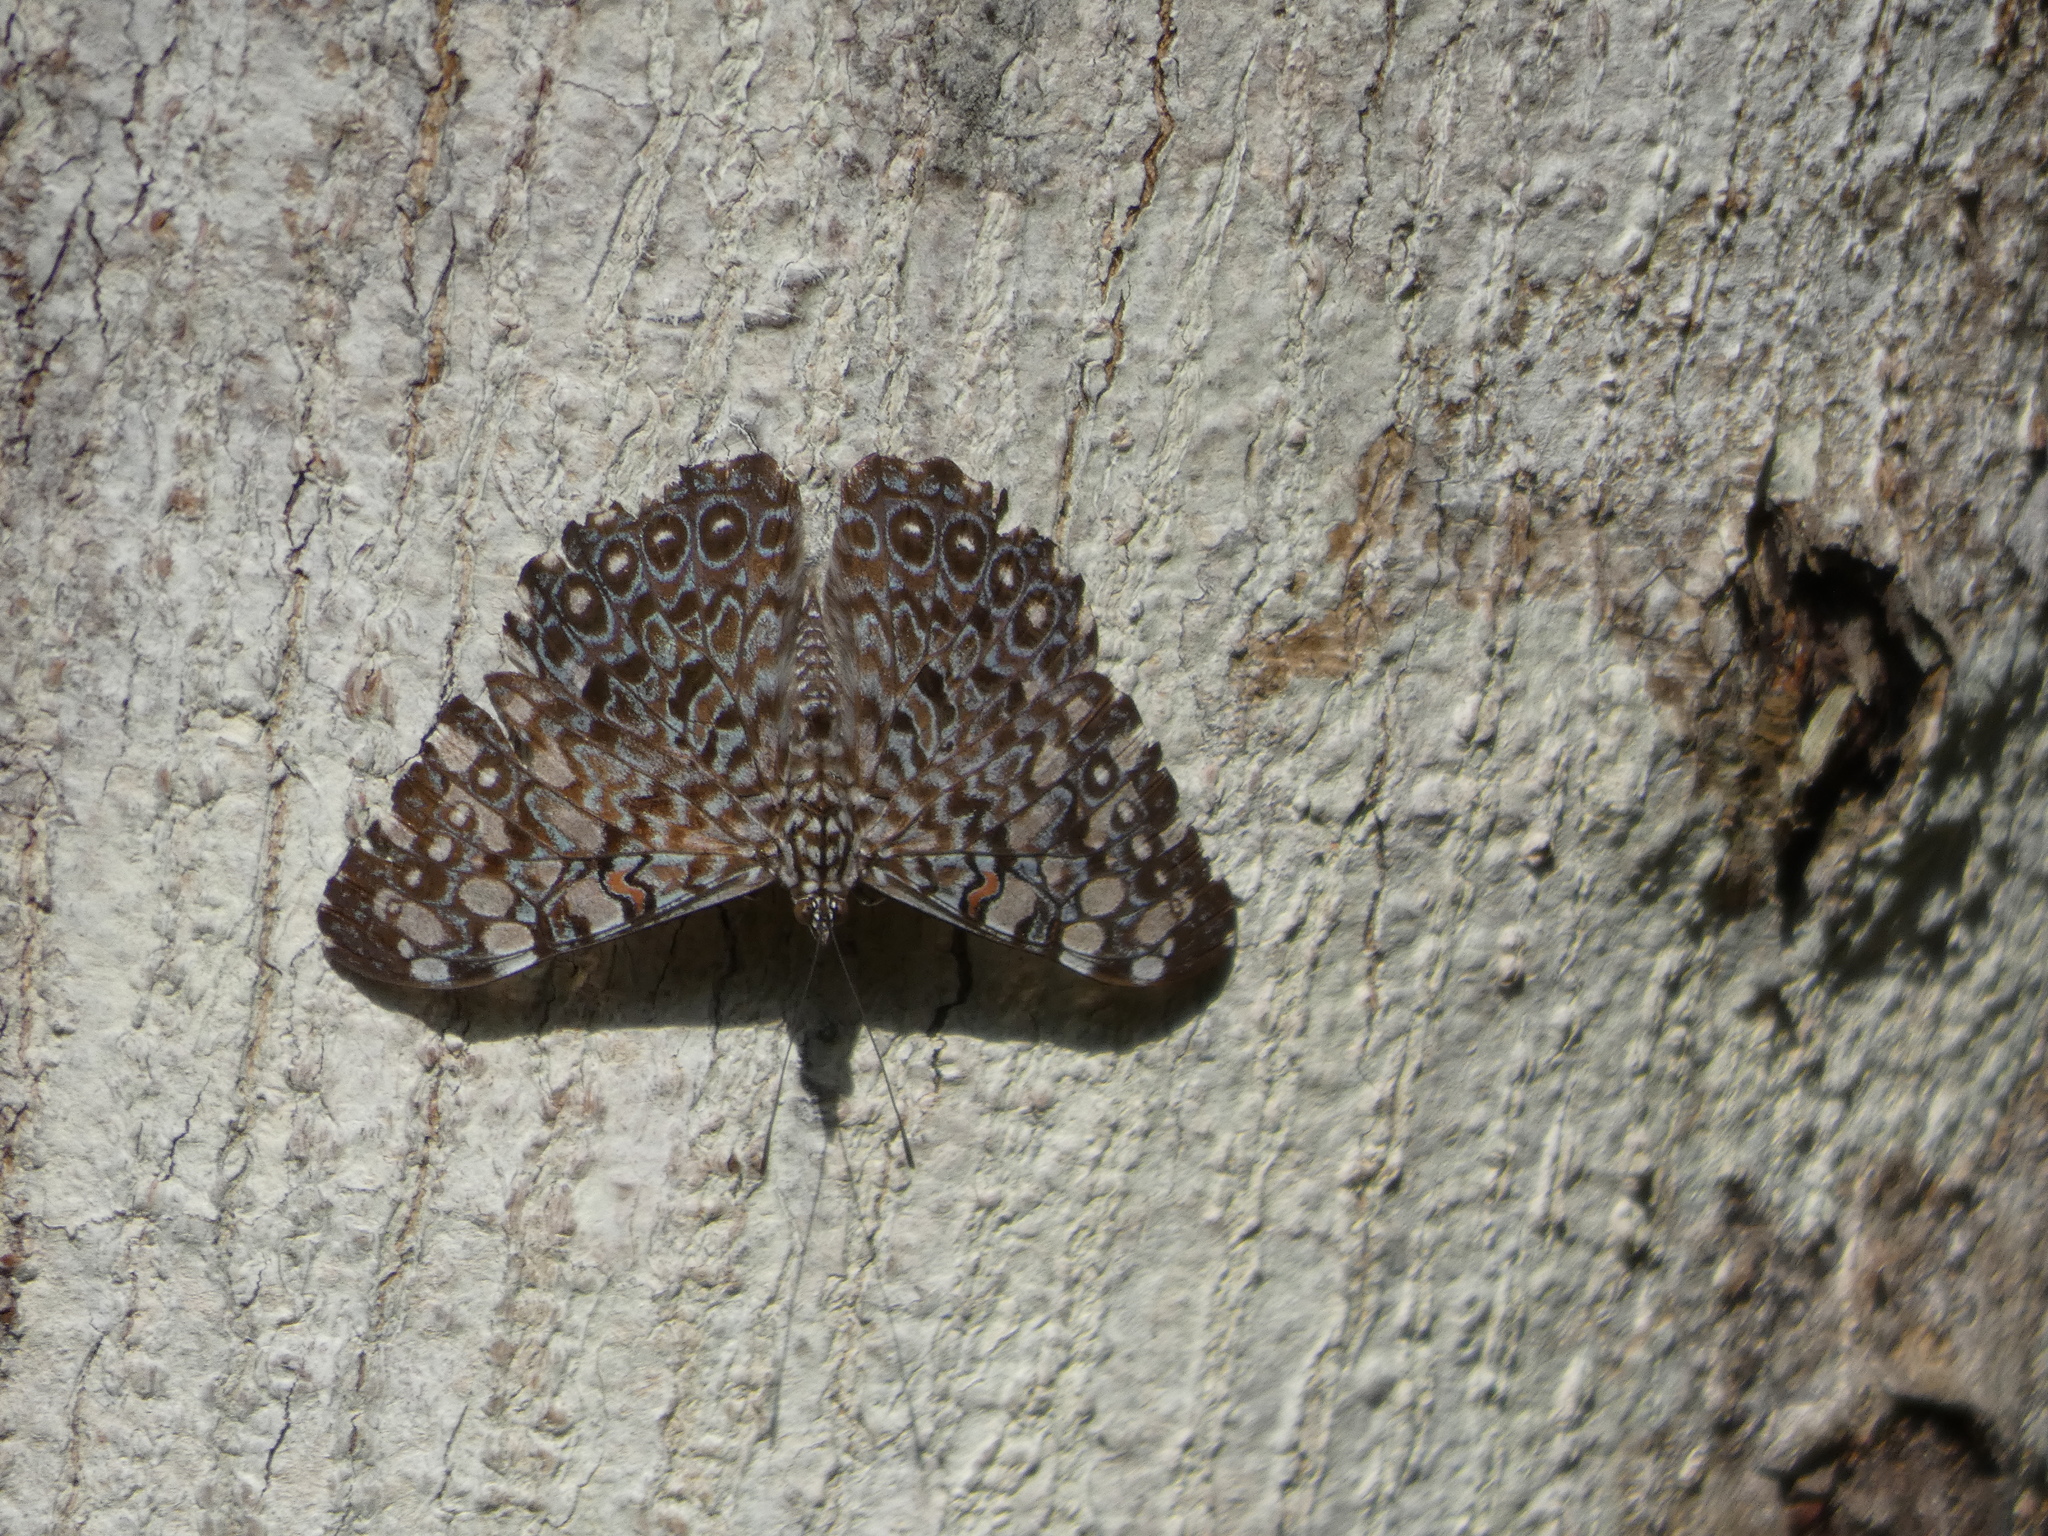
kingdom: Animalia
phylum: Arthropoda
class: Insecta
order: Lepidoptera
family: Nymphalidae
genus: Hamadryas
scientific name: Hamadryas feronia
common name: Variable cracker
